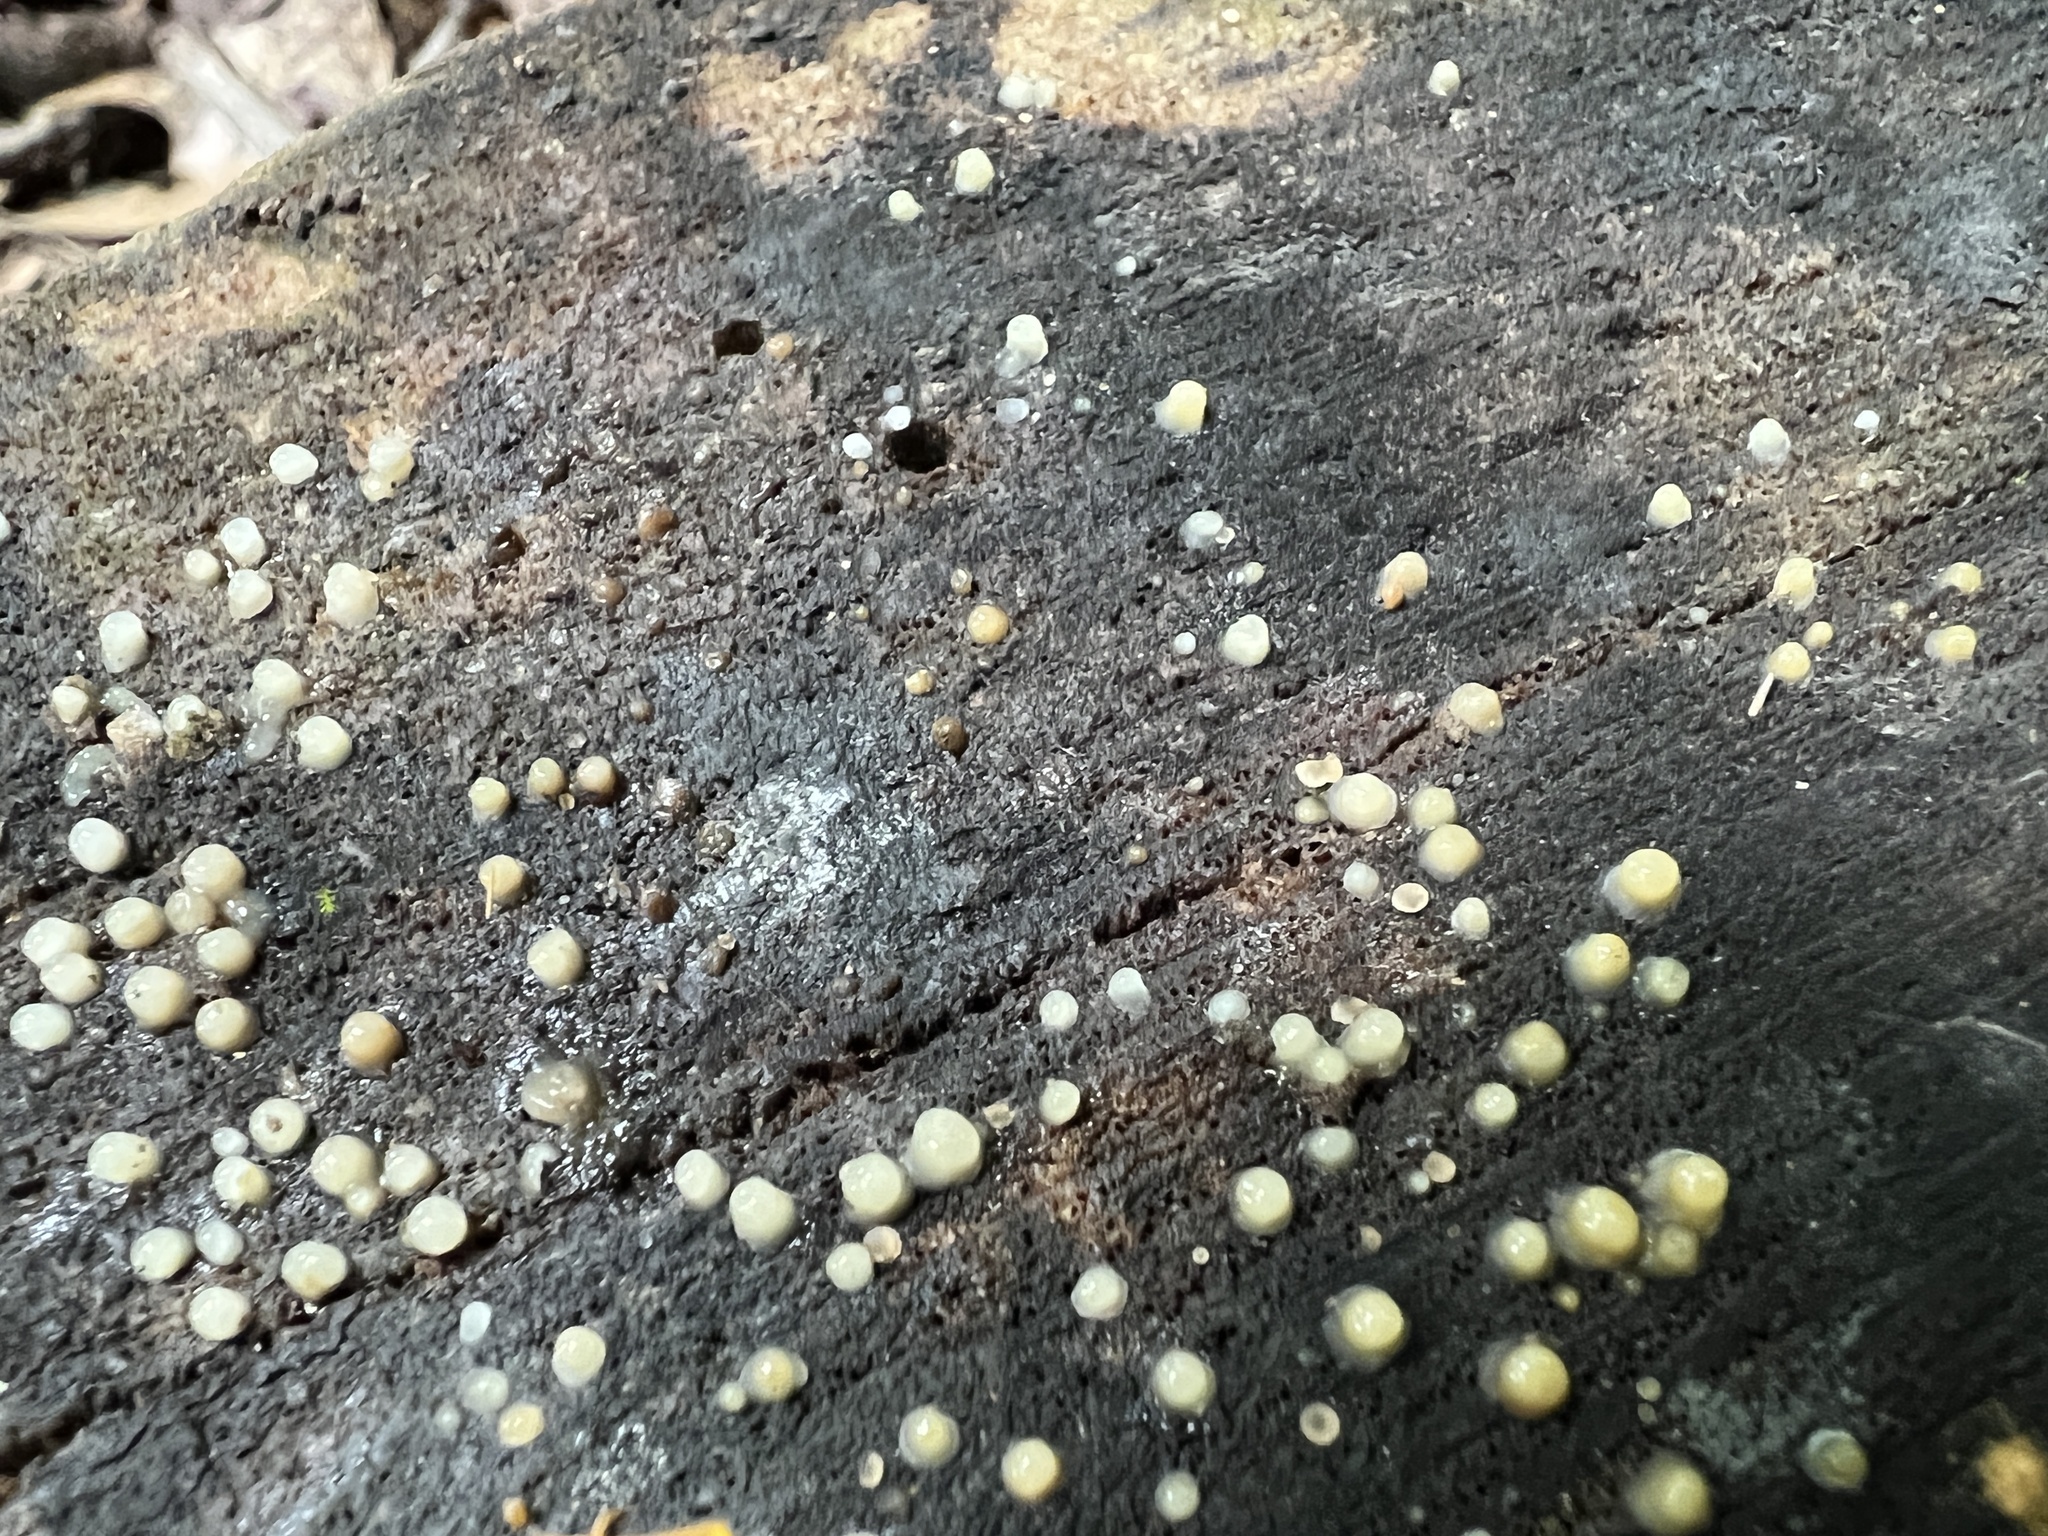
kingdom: Fungi
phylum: Basidiomycota
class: Atractiellomycetes
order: Atractiellales
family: Phleogenaceae
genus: Helicogloea
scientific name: Helicogloea compressa
